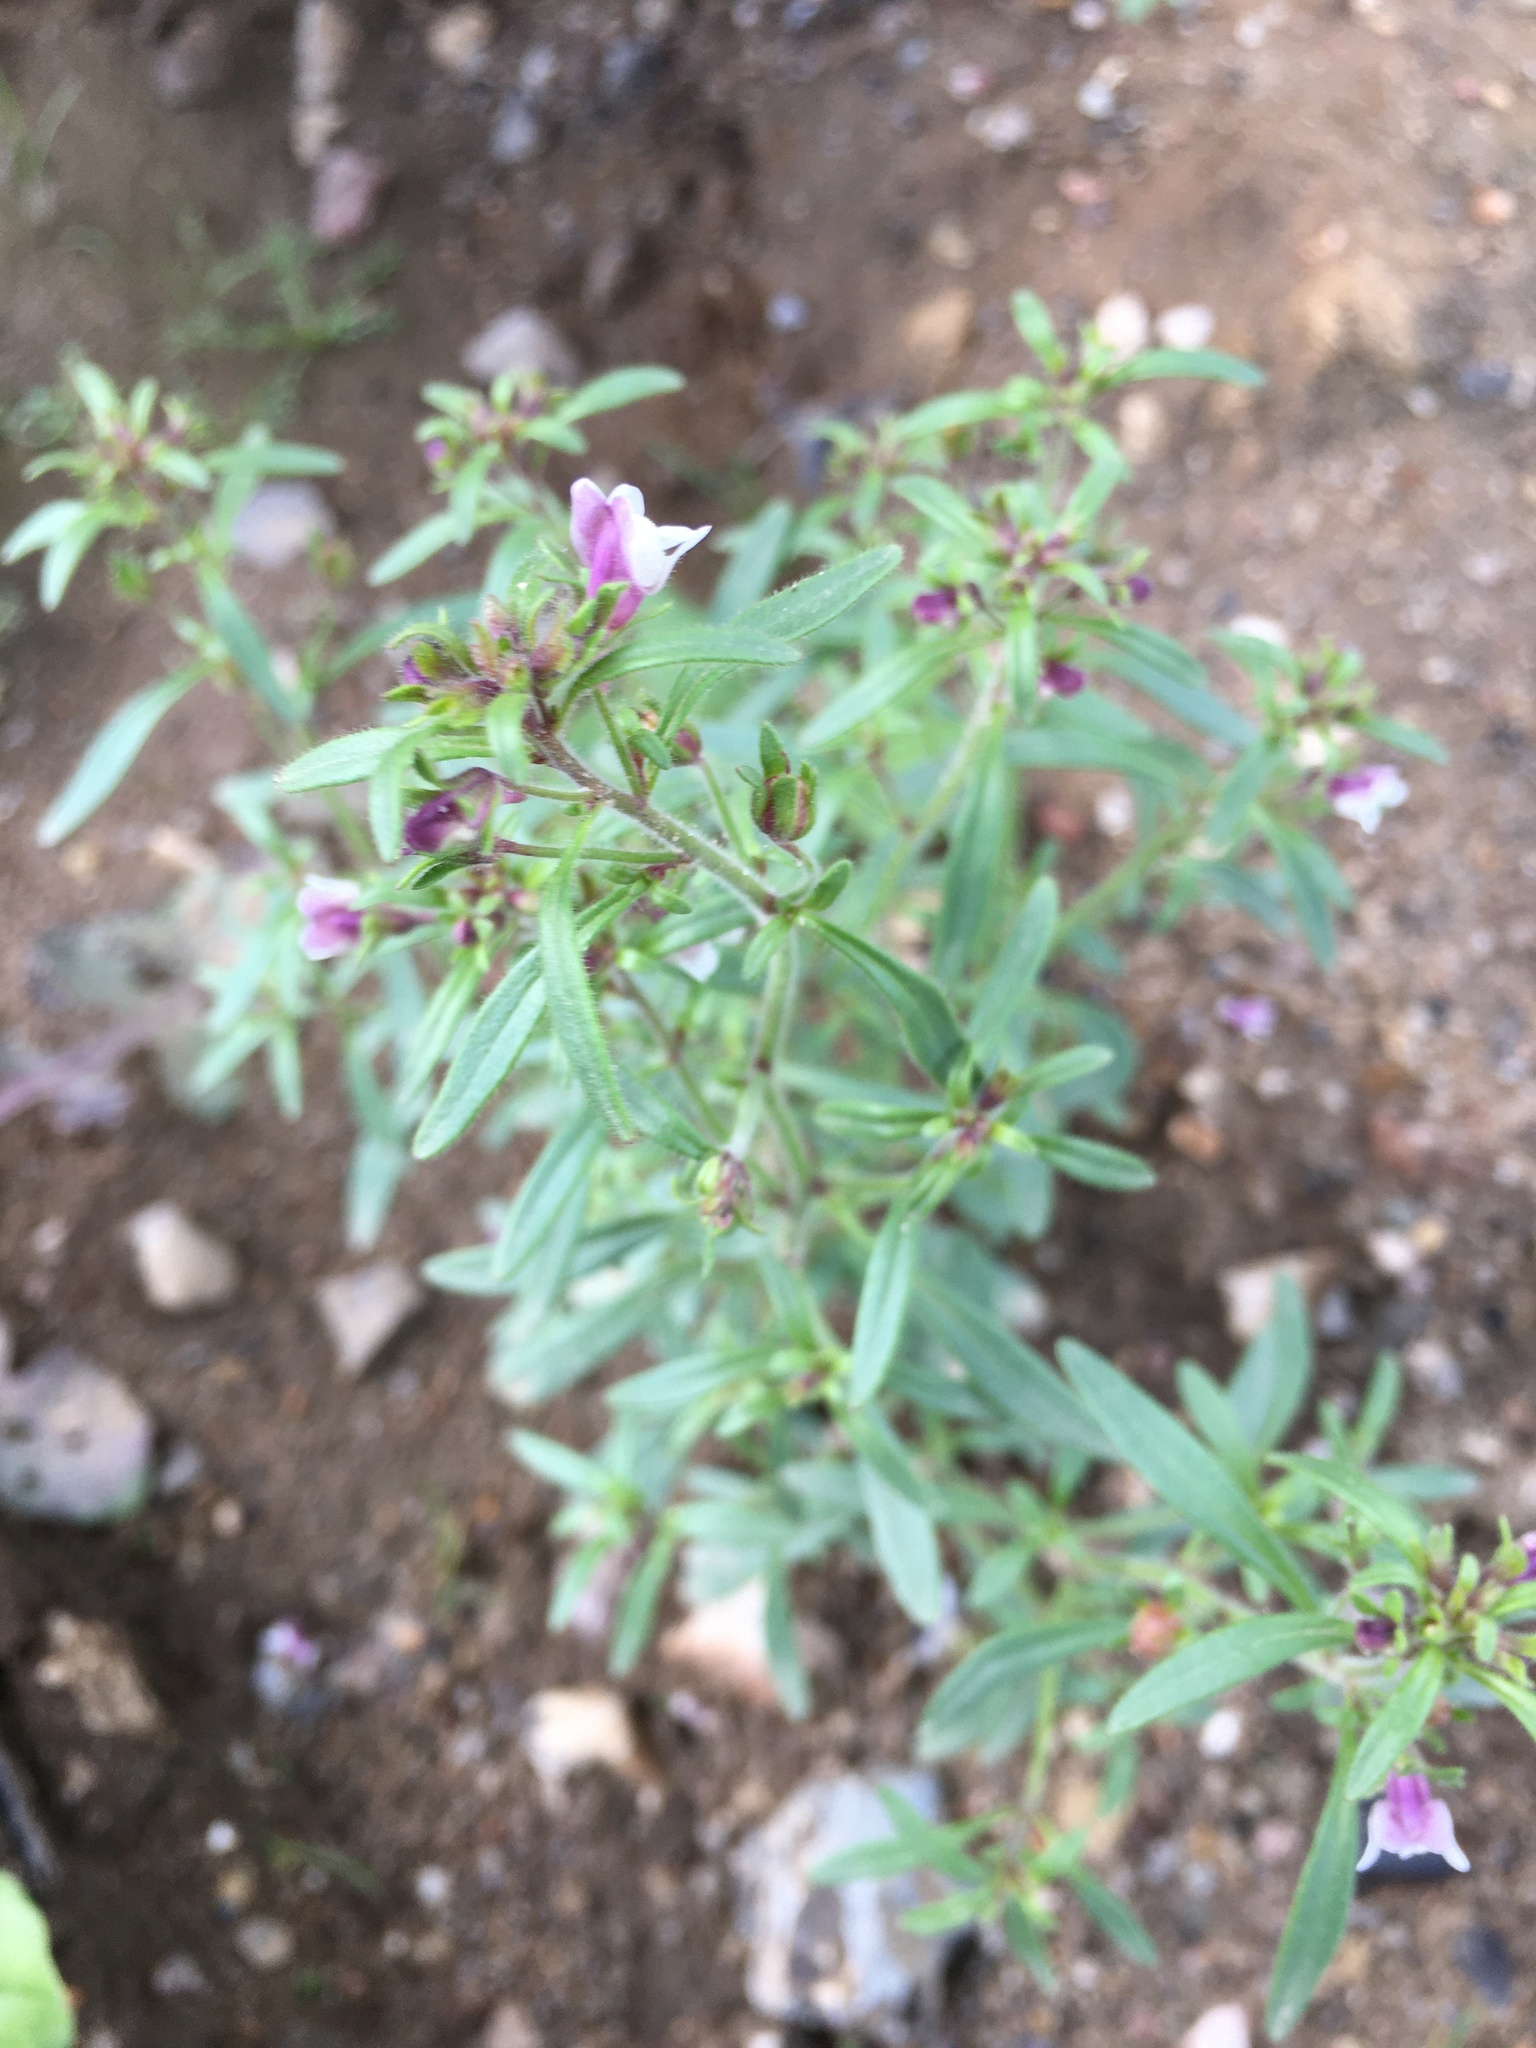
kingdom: Plantae
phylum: Tracheophyta
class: Magnoliopsida
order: Lamiales
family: Plantaginaceae
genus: Chaenorhinum
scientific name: Chaenorhinum minus
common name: Dwarf snapdragon
